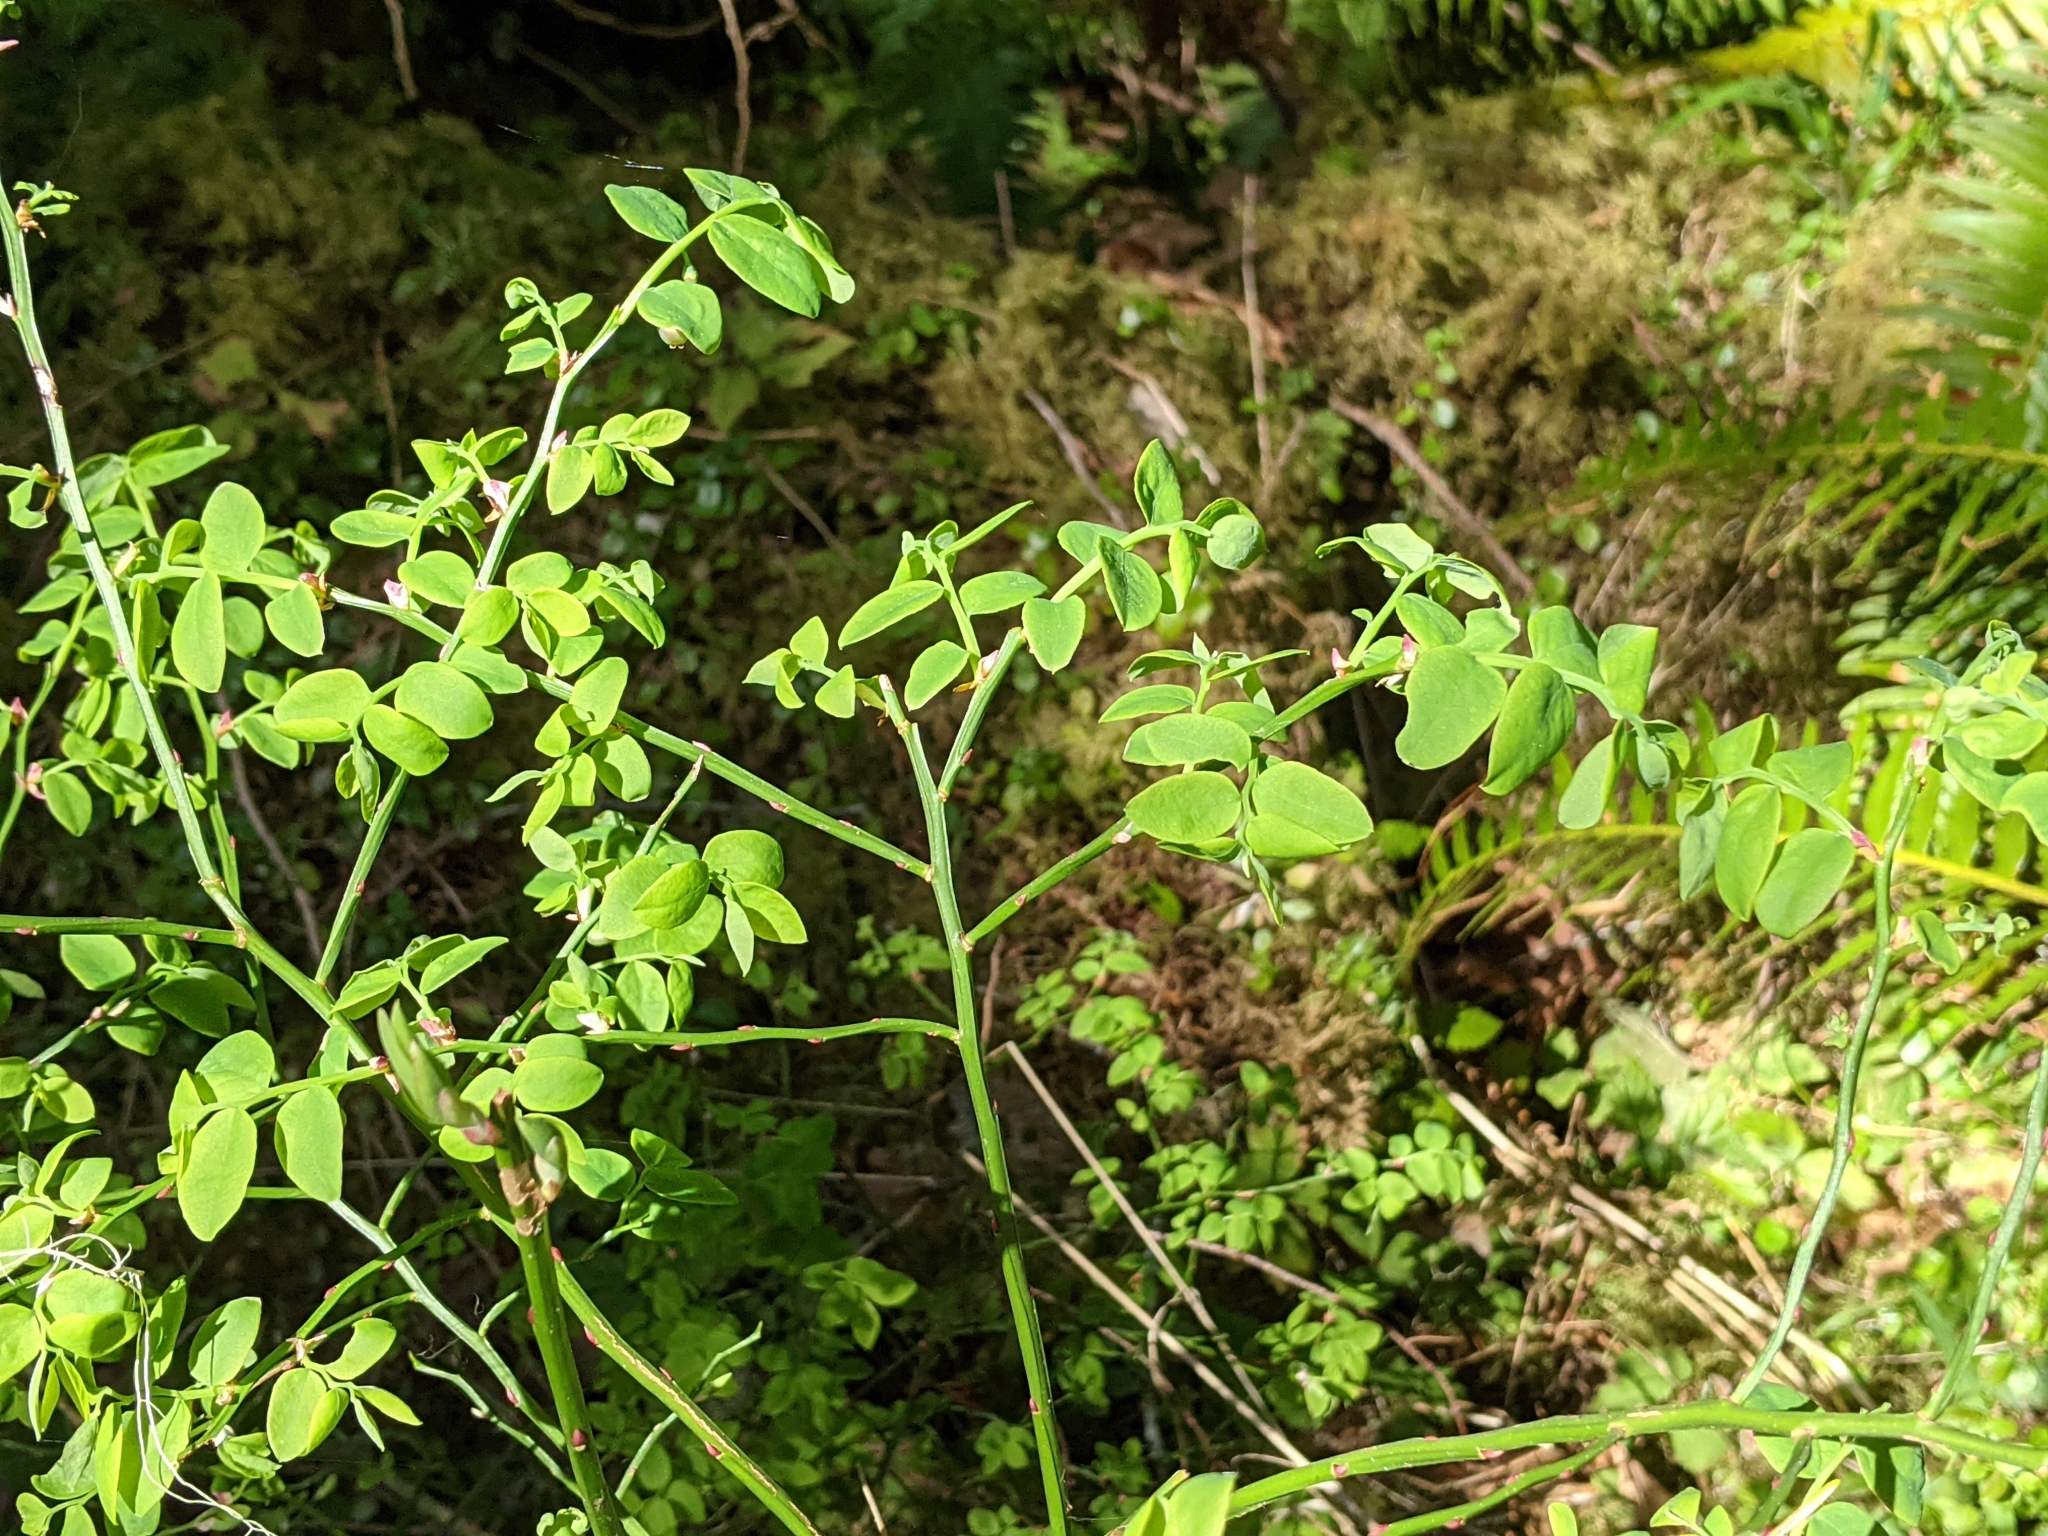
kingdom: Plantae
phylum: Tracheophyta
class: Magnoliopsida
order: Ericales
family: Ericaceae
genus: Vaccinium
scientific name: Vaccinium parvifolium
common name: Red-huckleberry
